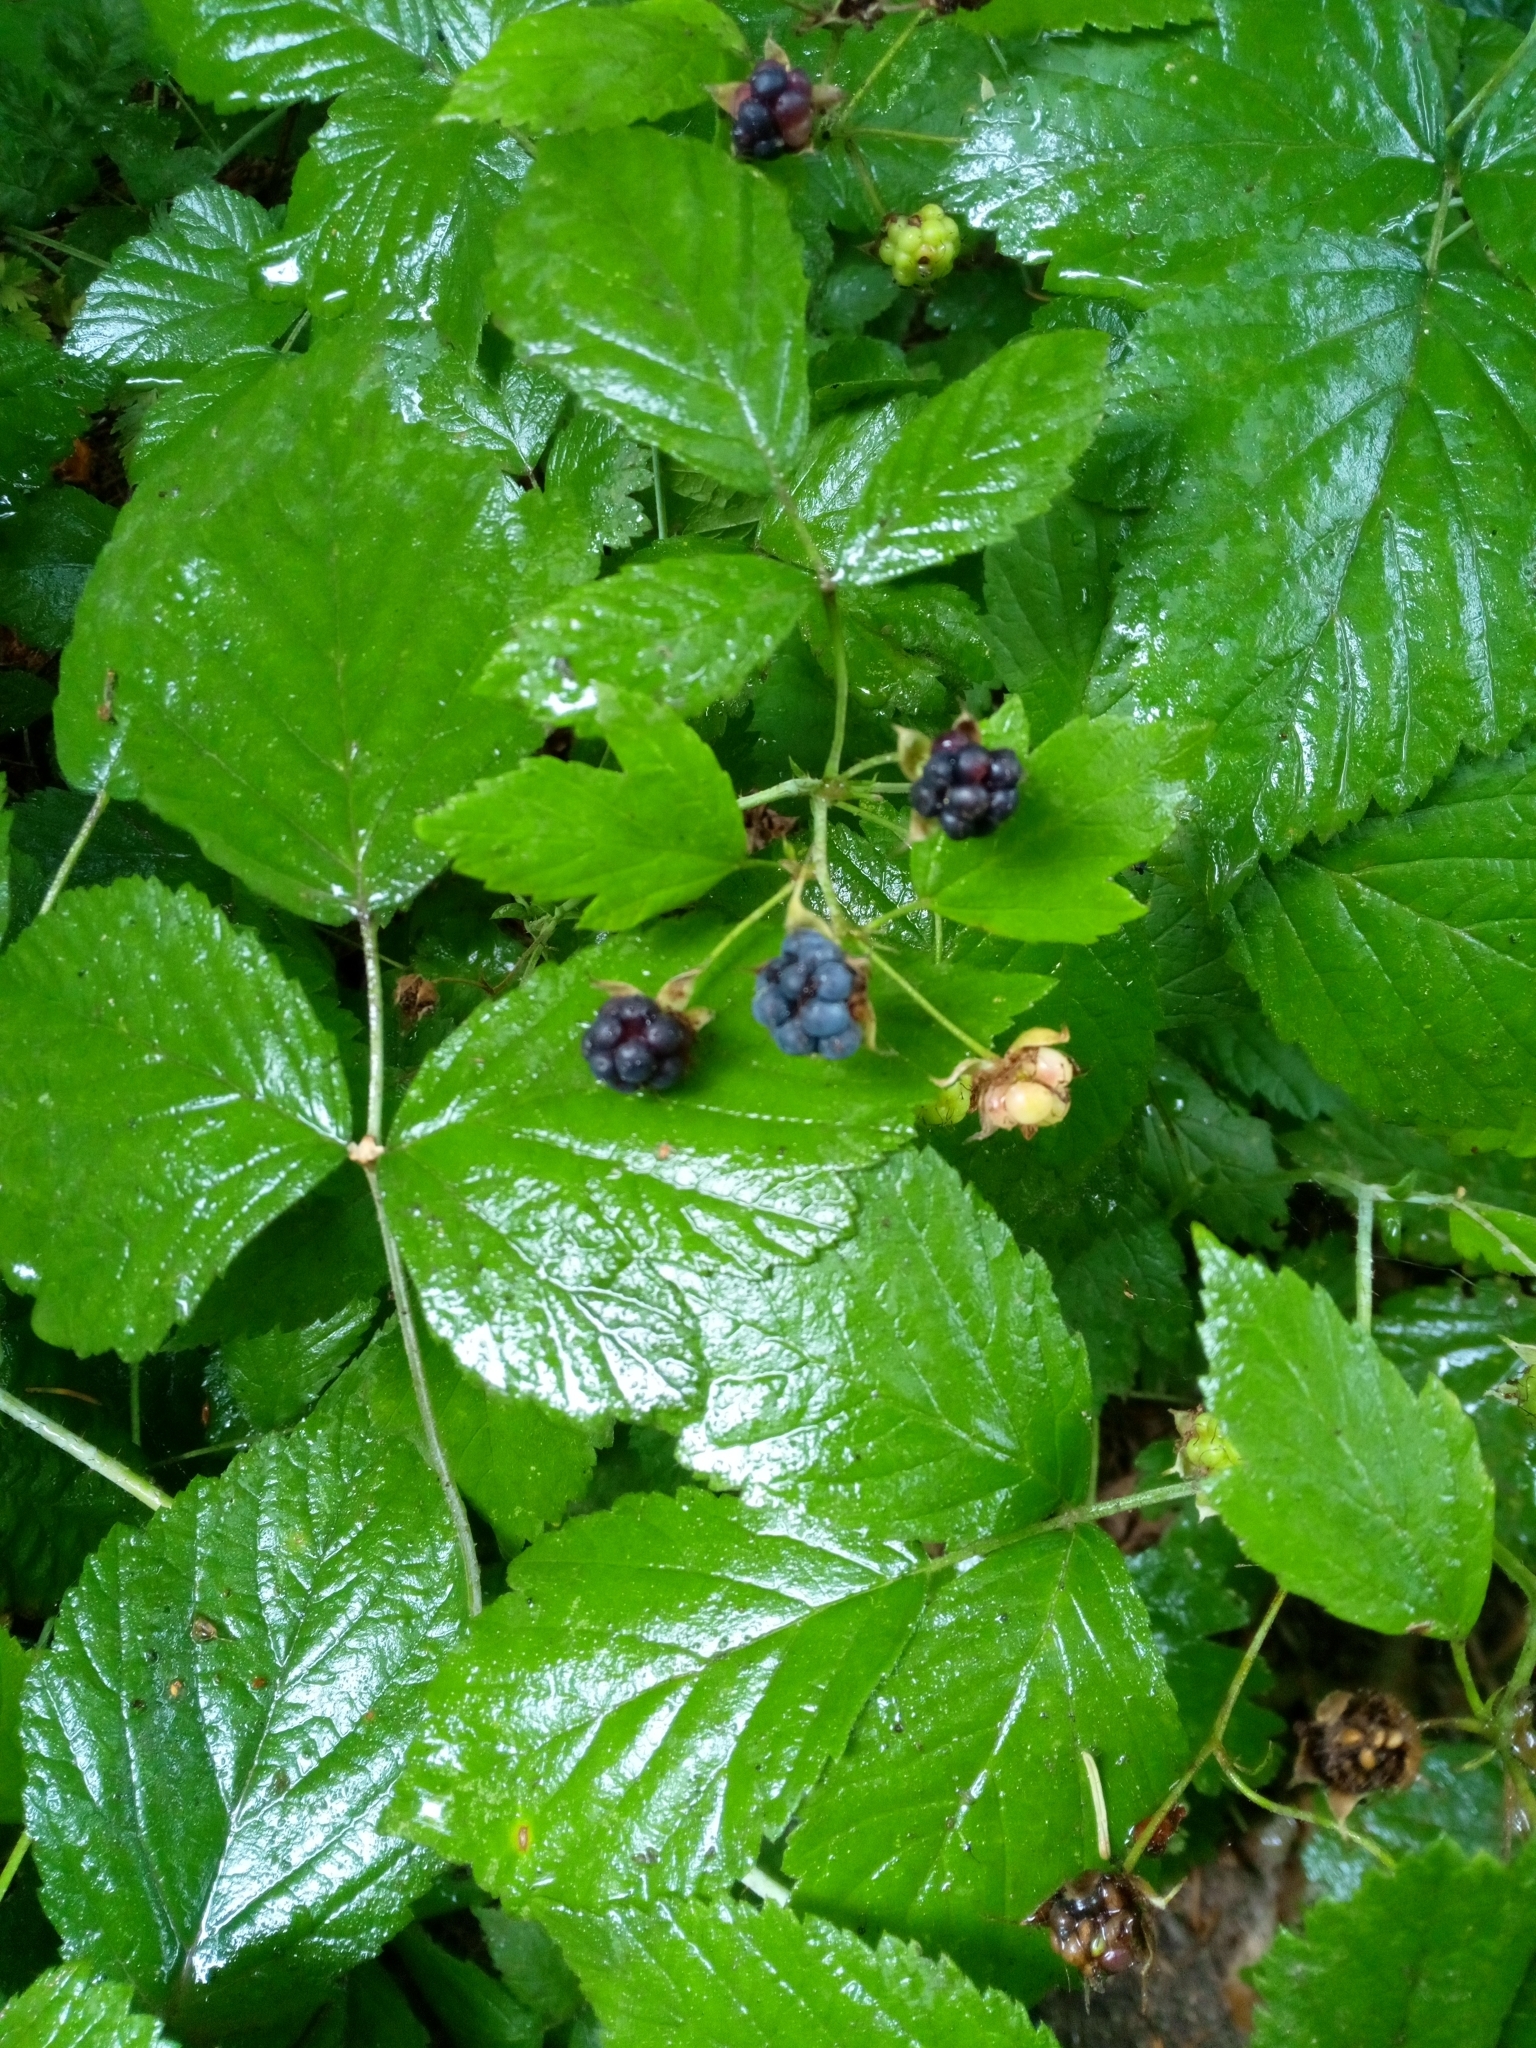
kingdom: Plantae
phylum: Tracheophyta
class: Magnoliopsida
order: Rosales
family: Rosaceae
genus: Rubus
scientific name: Rubus caesius
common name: Dewberry
